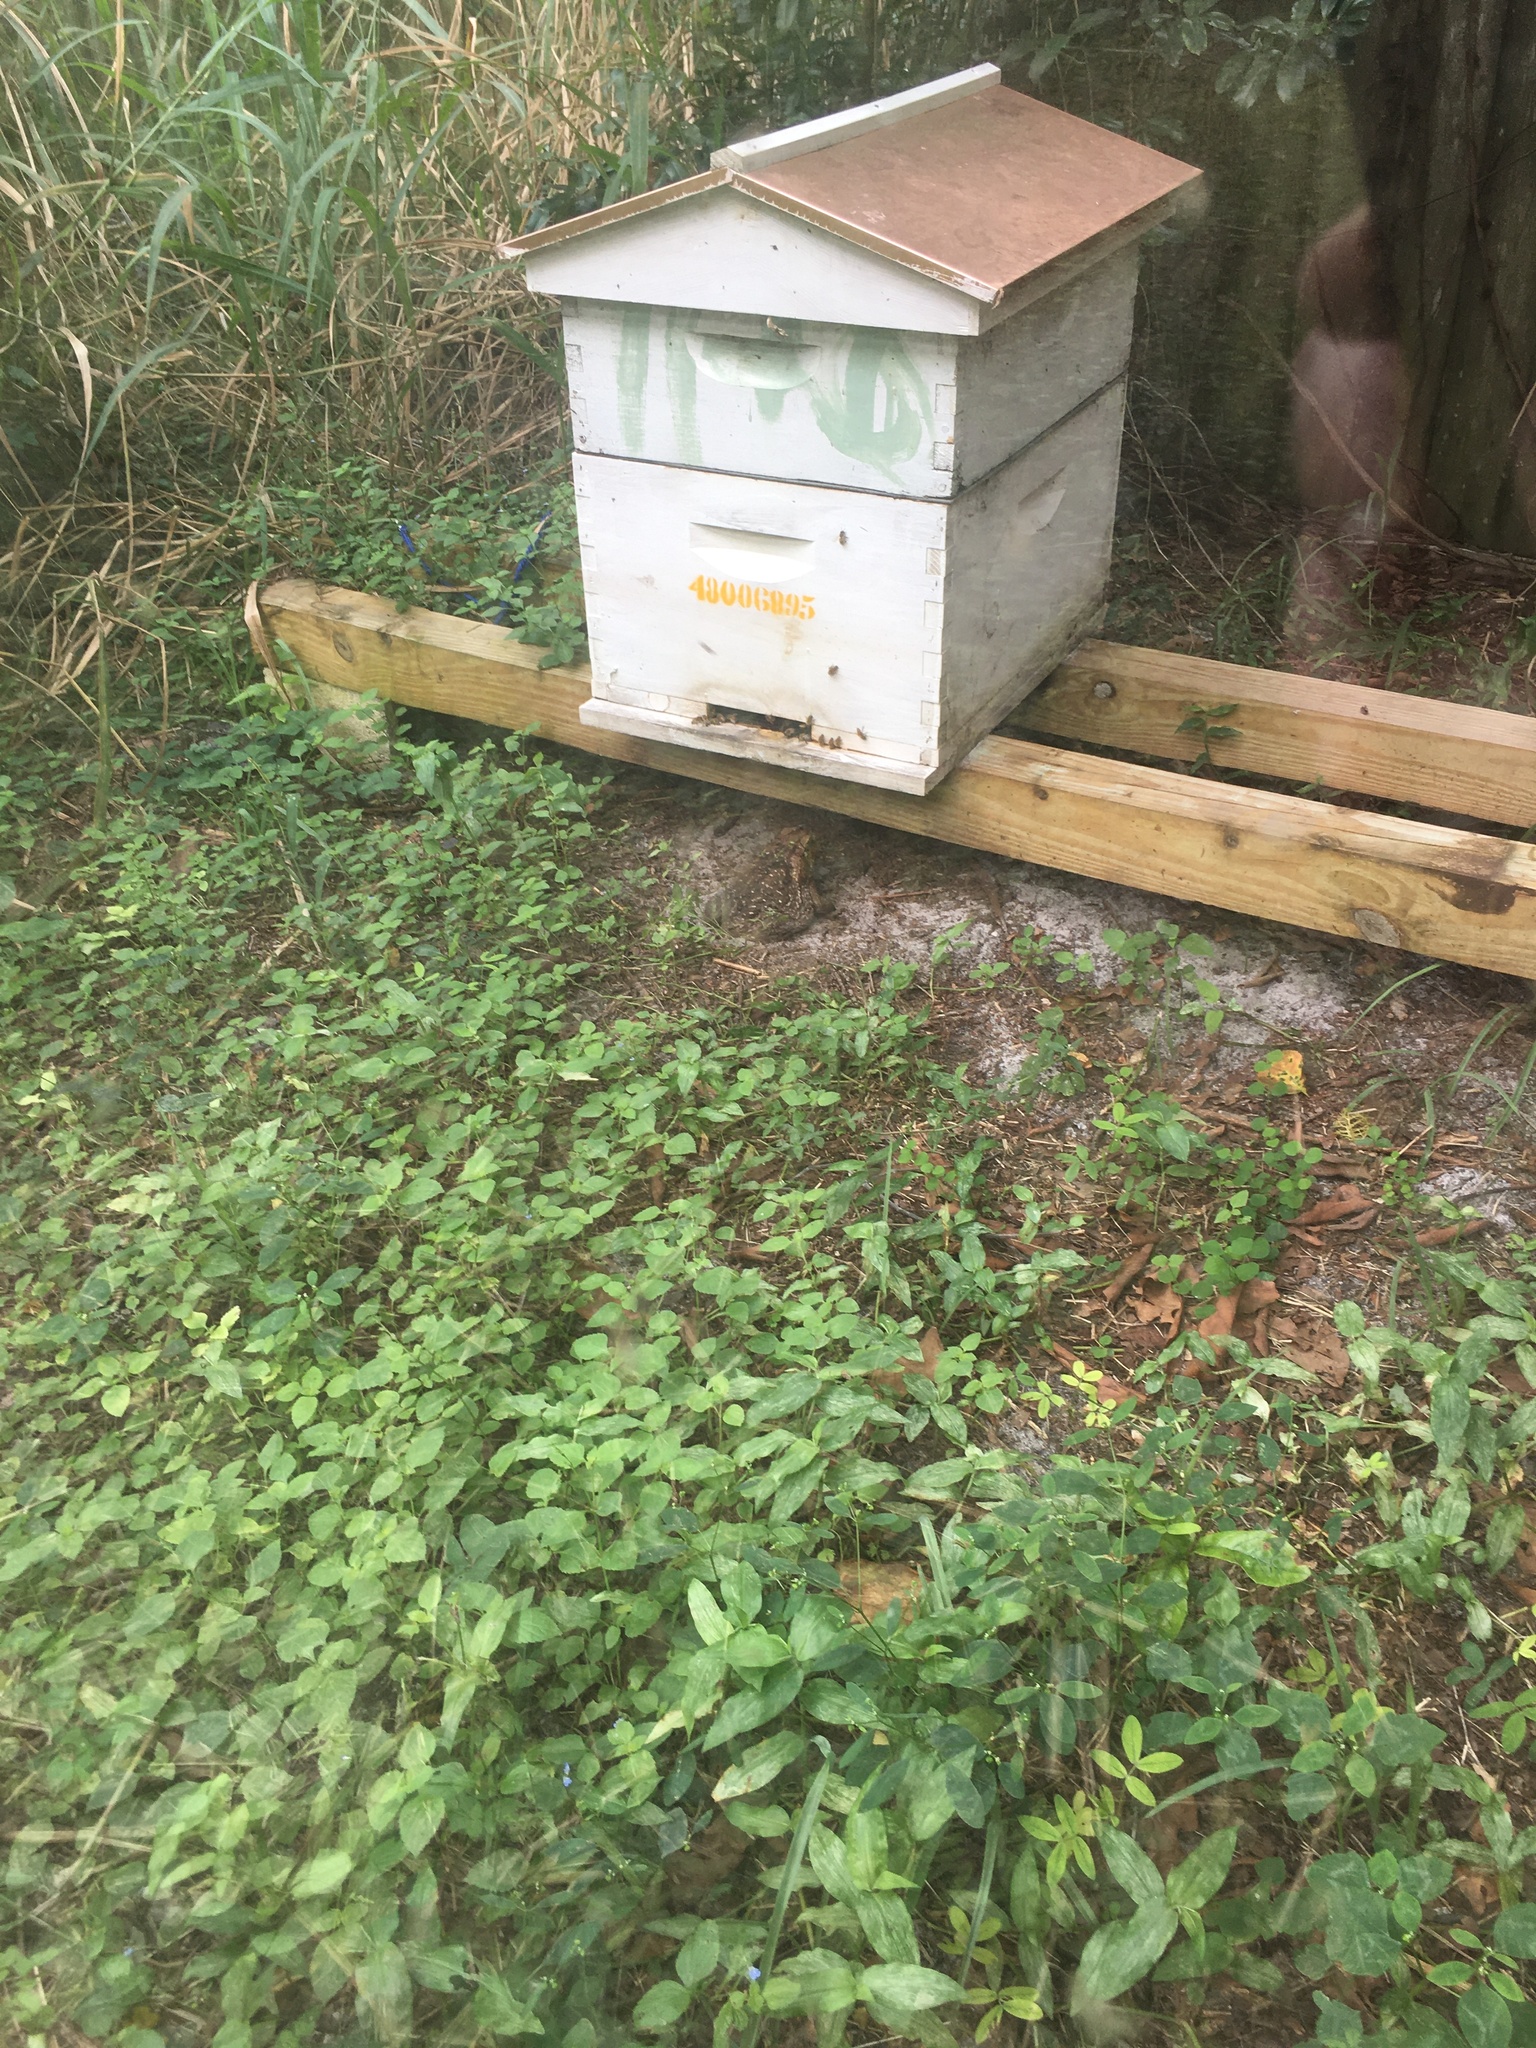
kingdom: Animalia
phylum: Chordata
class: Amphibia
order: Anura
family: Bufonidae
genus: Rhinella
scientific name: Rhinella marina
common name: Cane toad
